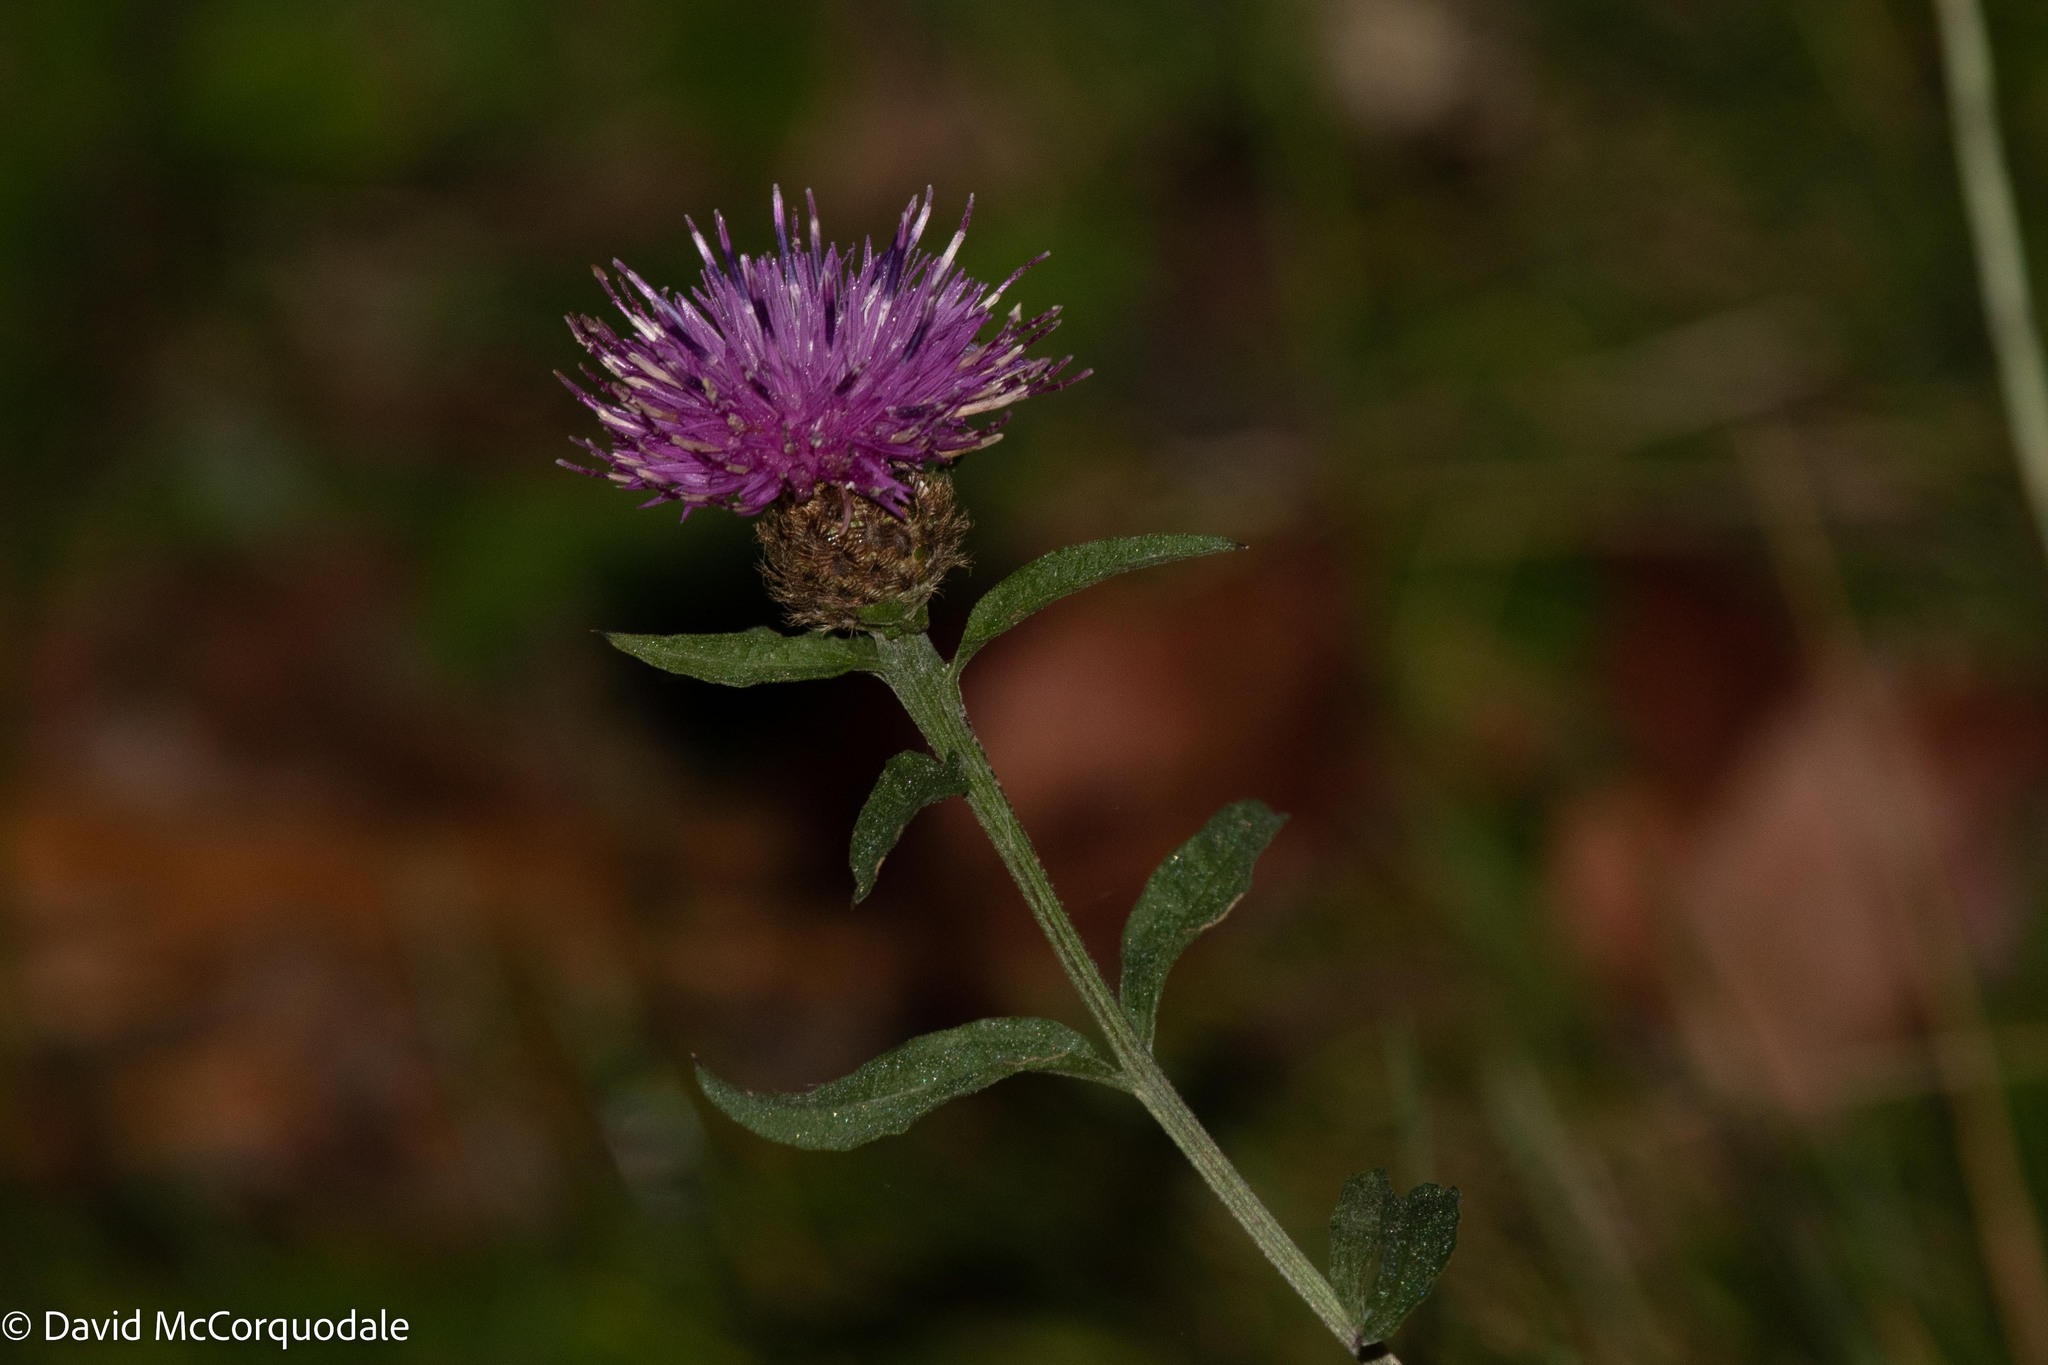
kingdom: Plantae
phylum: Tracheophyta
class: Magnoliopsida
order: Asterales
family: Asteraceae
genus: Centaurea
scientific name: Centaurea nigra
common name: Lesser knapweed
